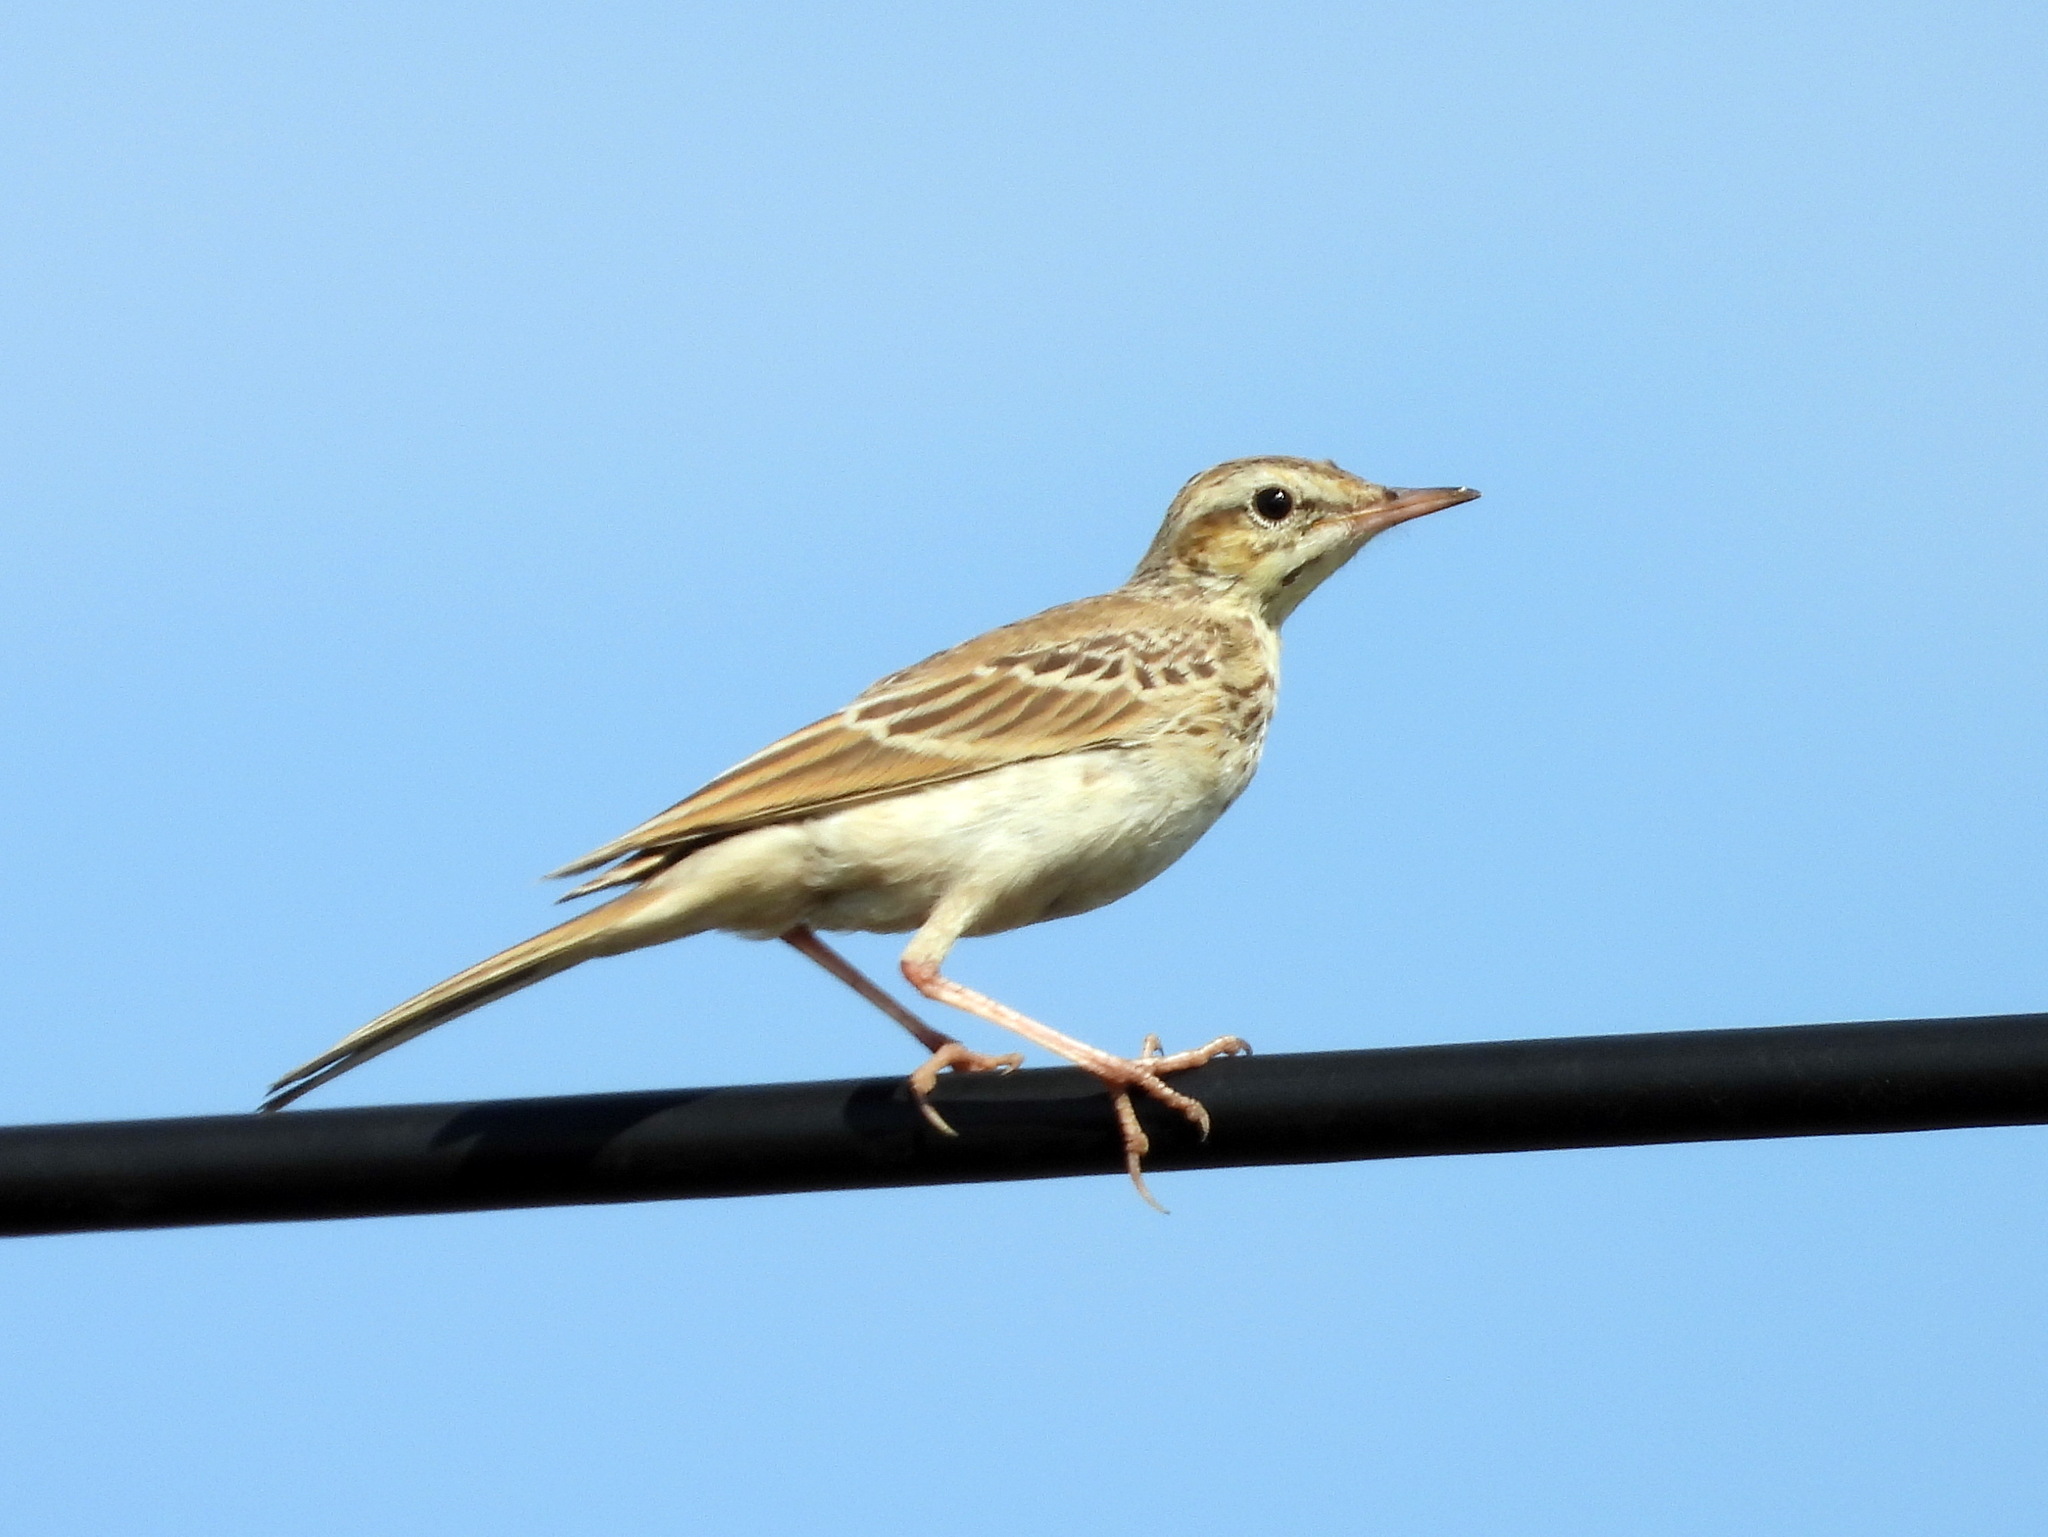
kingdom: Animalia
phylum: Chordata
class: Aves
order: Passeriformes
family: Motacillidae
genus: Anthus
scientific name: Anthus campestris
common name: Tawny pipit
